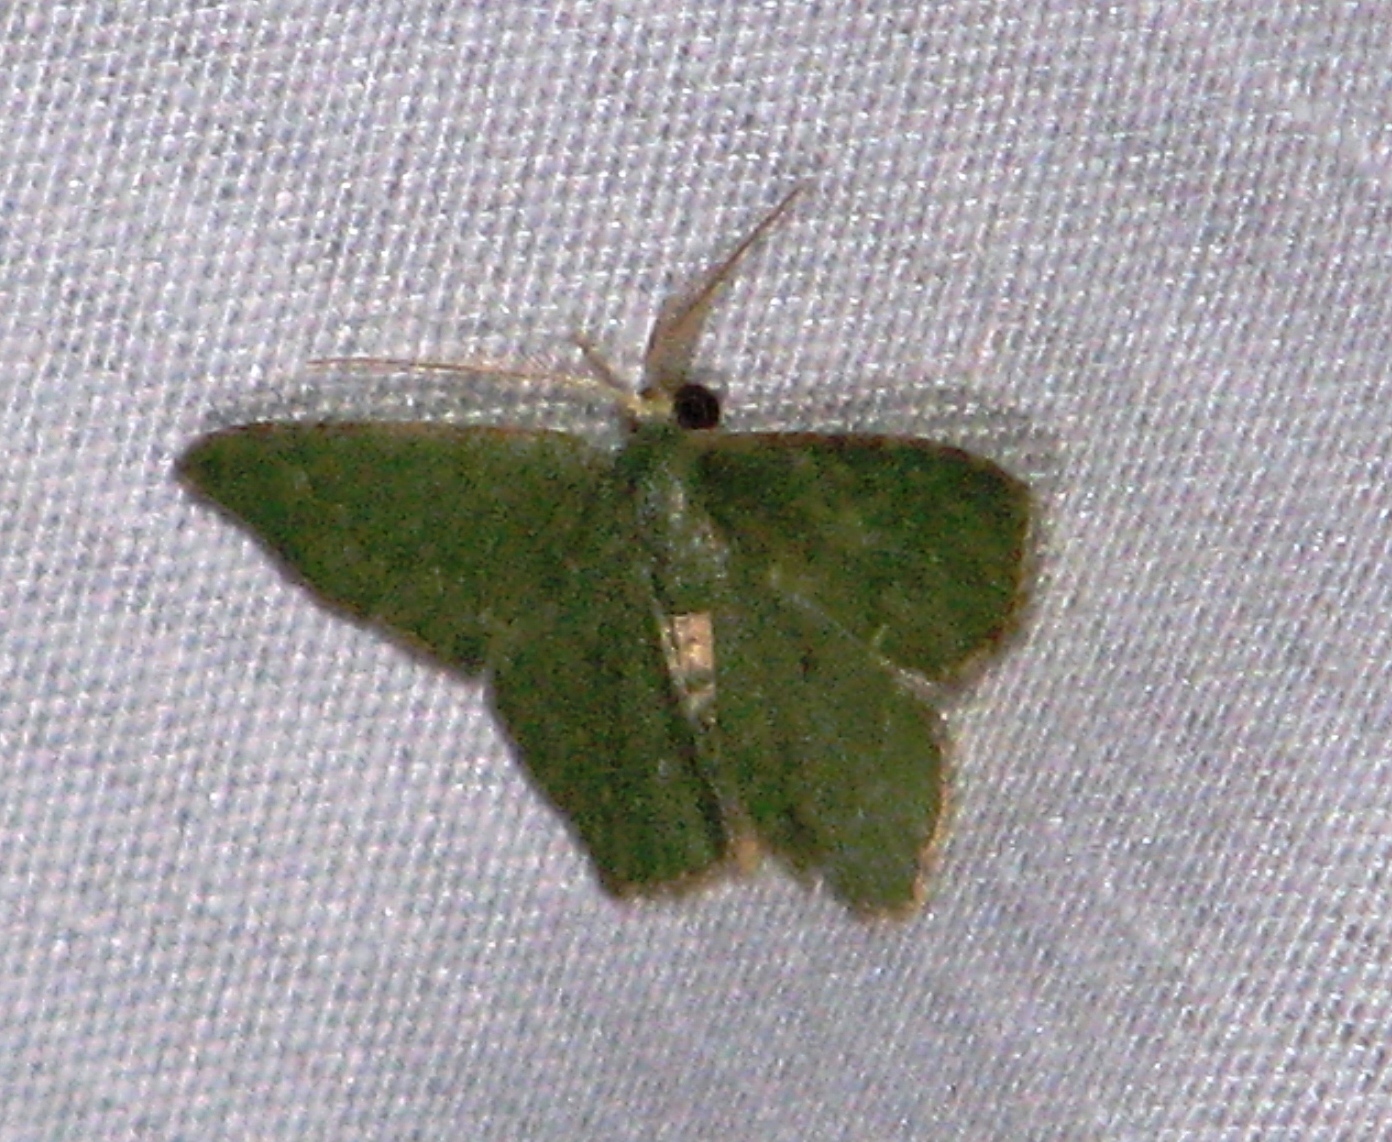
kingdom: Animalia
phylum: Arthropoda
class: Insecta
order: Lepidoptera
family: Geometridae
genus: Chloropteryx
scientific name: Chloropteryx nordicaria
